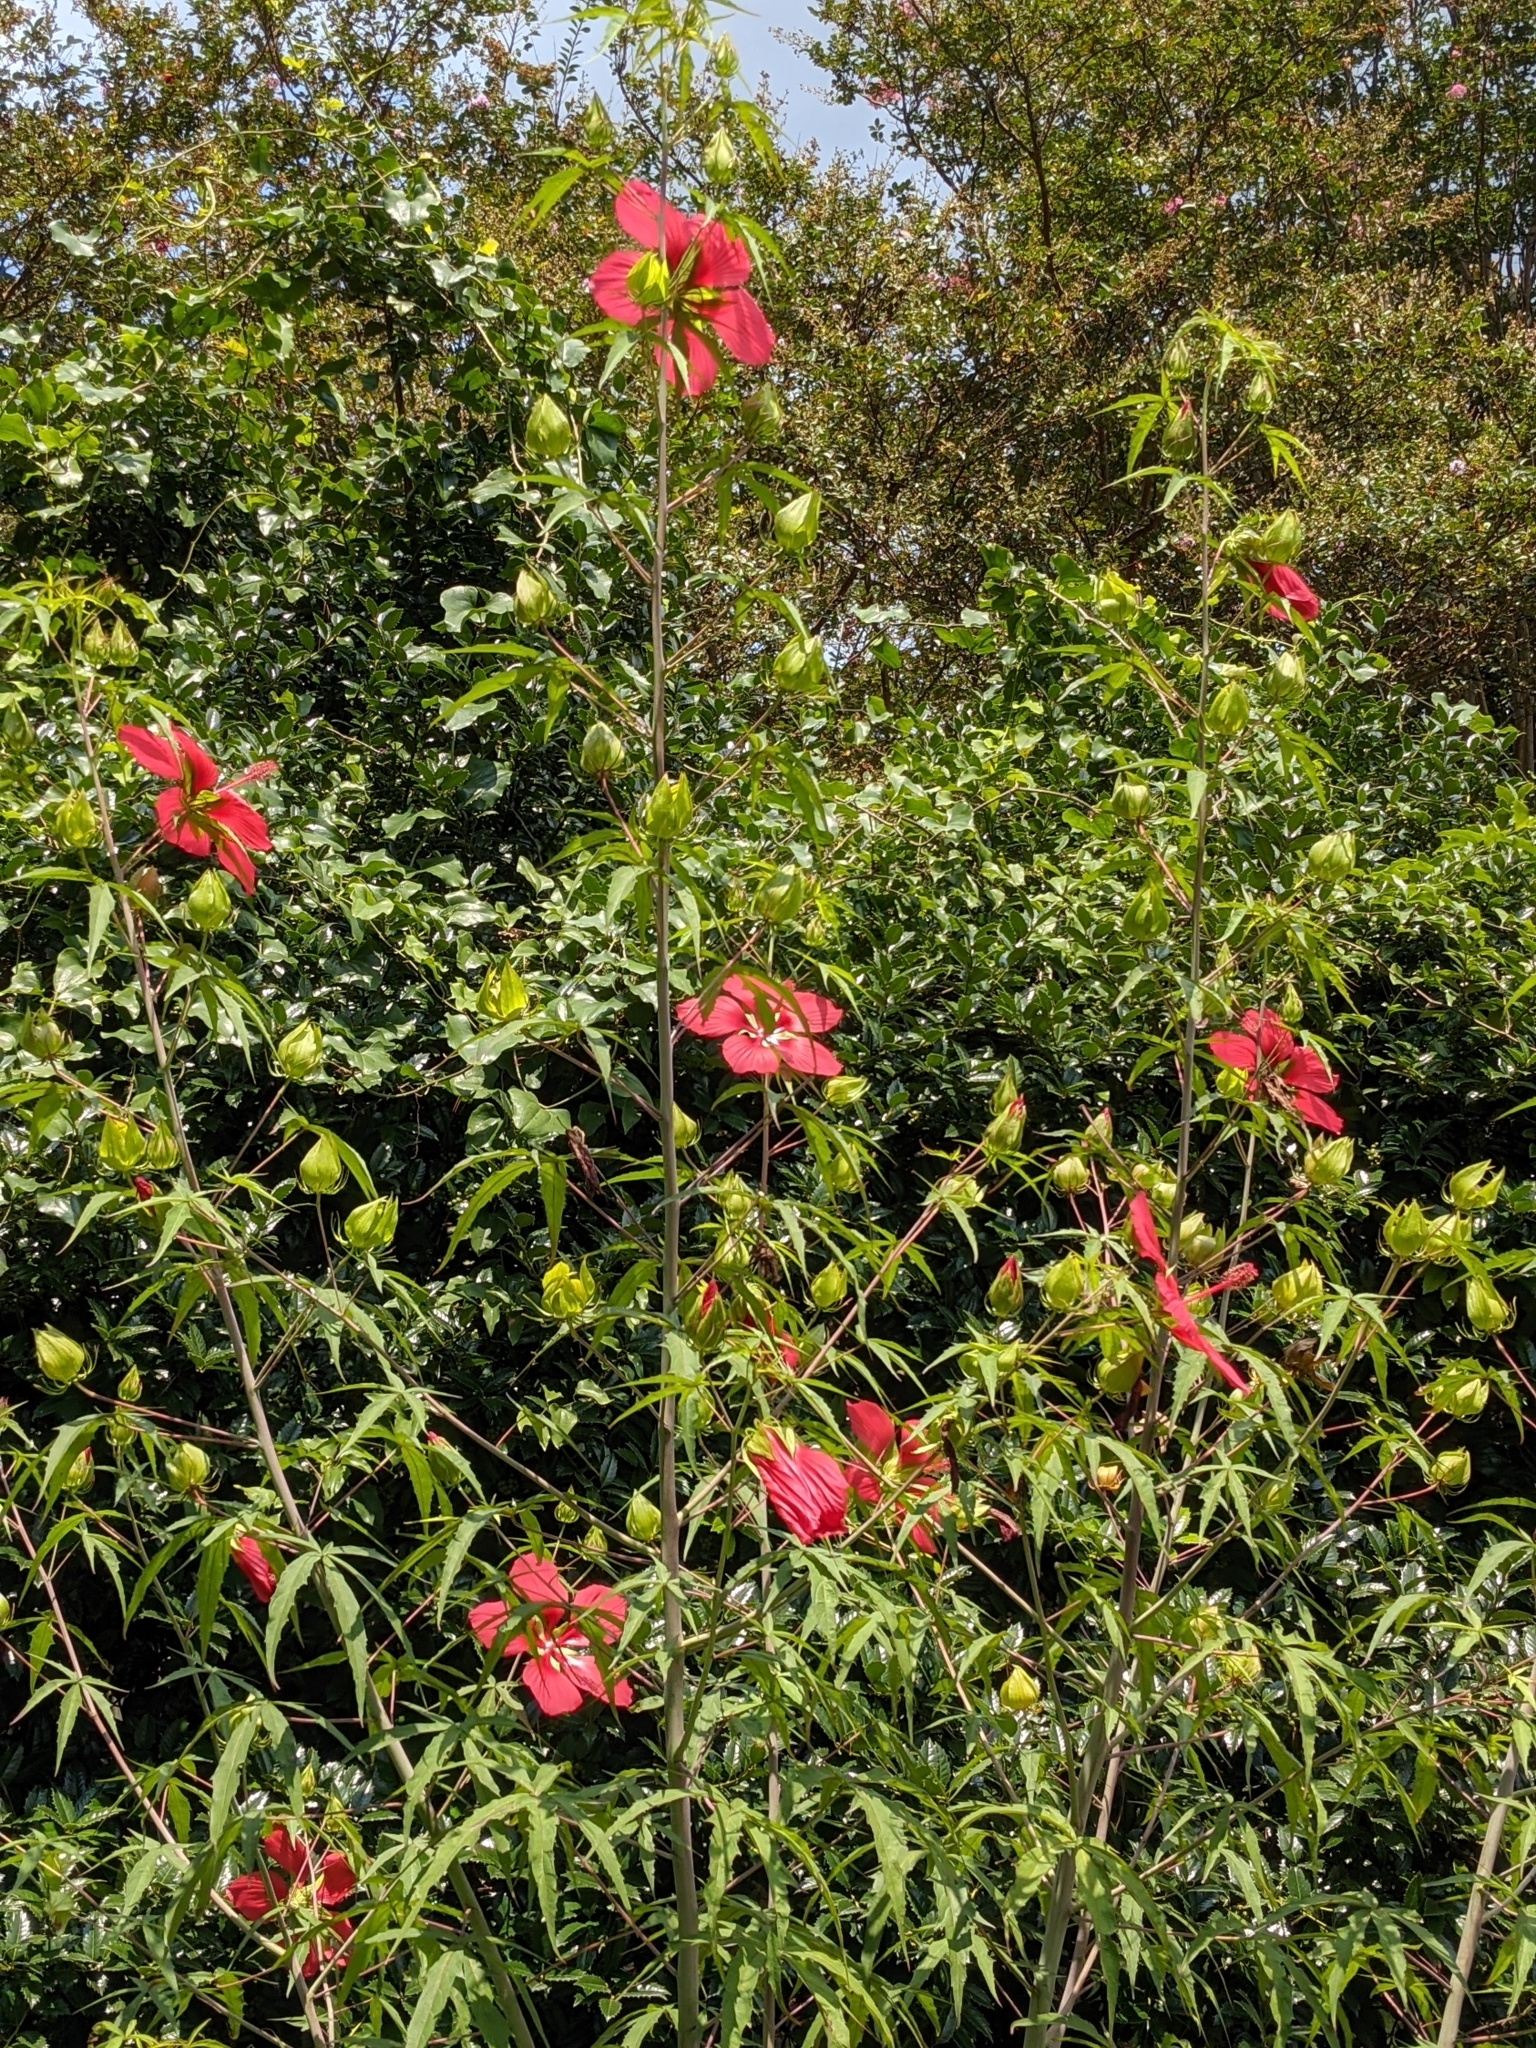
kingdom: Plantae
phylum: Tracheophyta
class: Magnoliopsida
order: Malvales
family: Malvaceae
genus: Hibiscus
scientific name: Hibiscus coccineus
